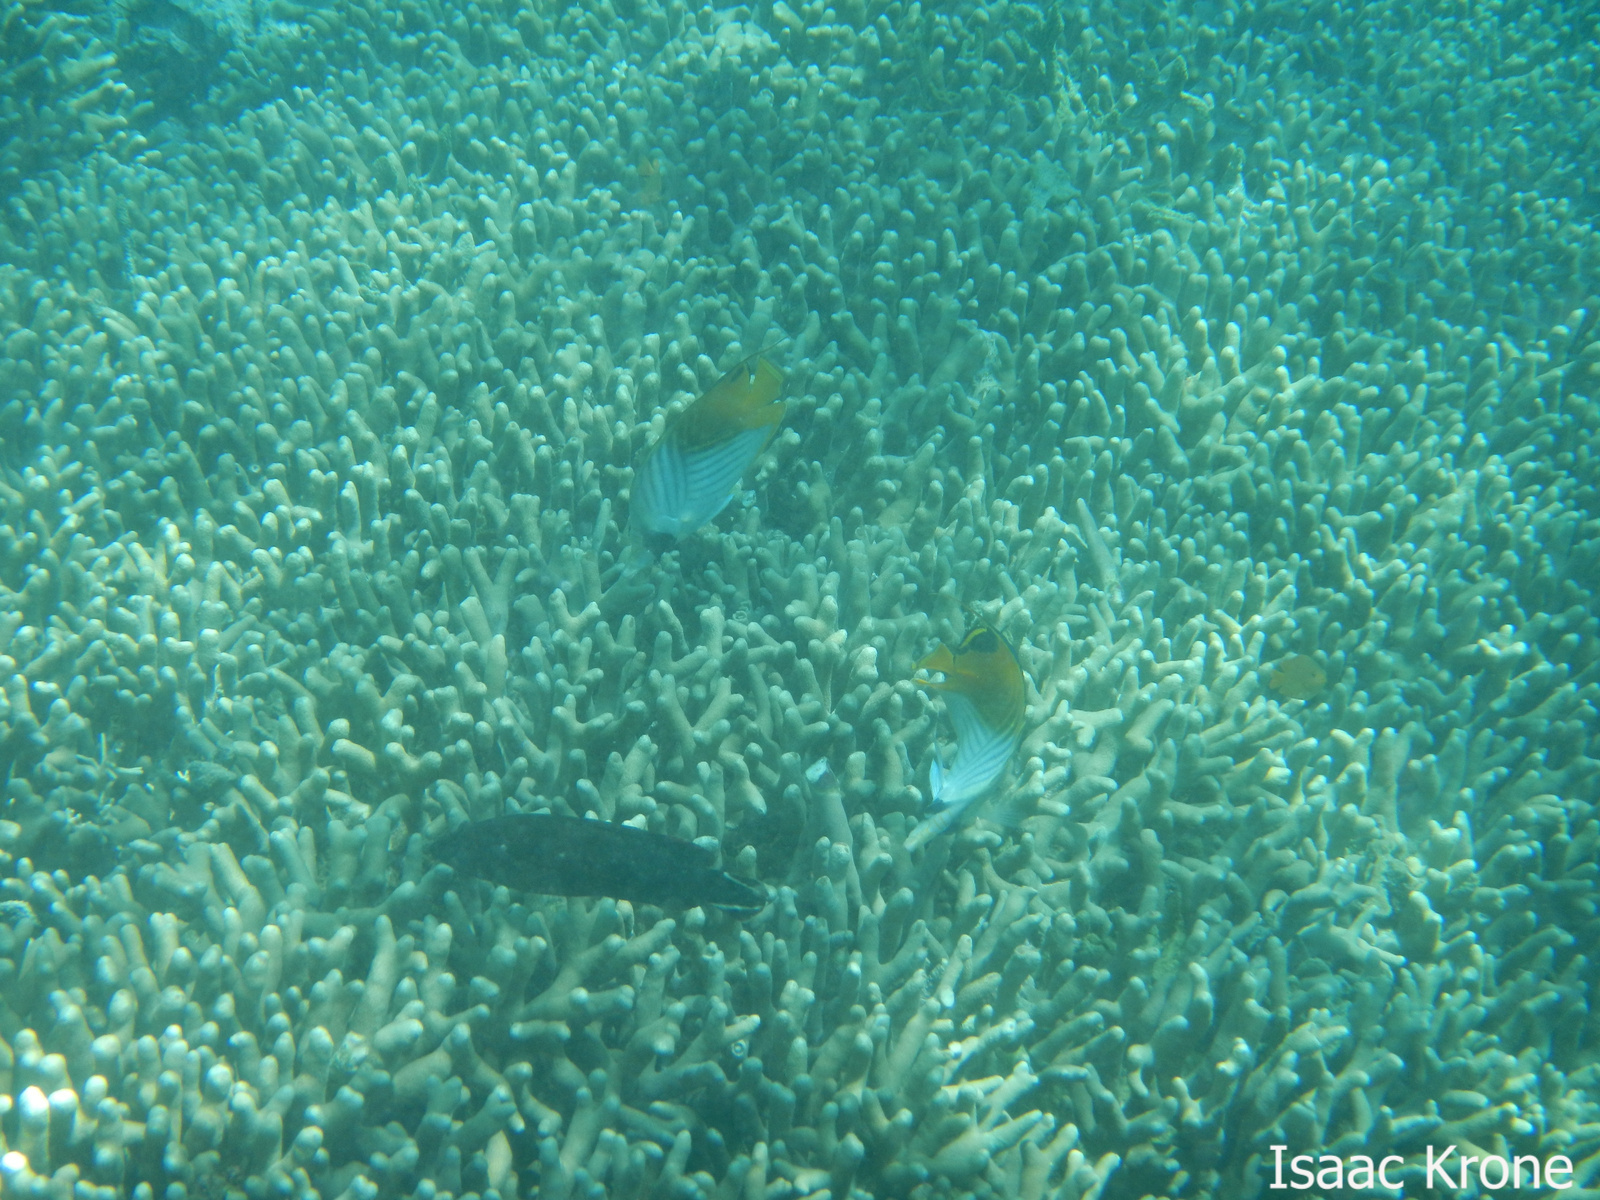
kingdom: Animalia
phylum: Chordata
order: Perciformes
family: Chaetodontidae
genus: Chaetodon
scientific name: Chaetodon auriga
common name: Threadfin butterflyfish
